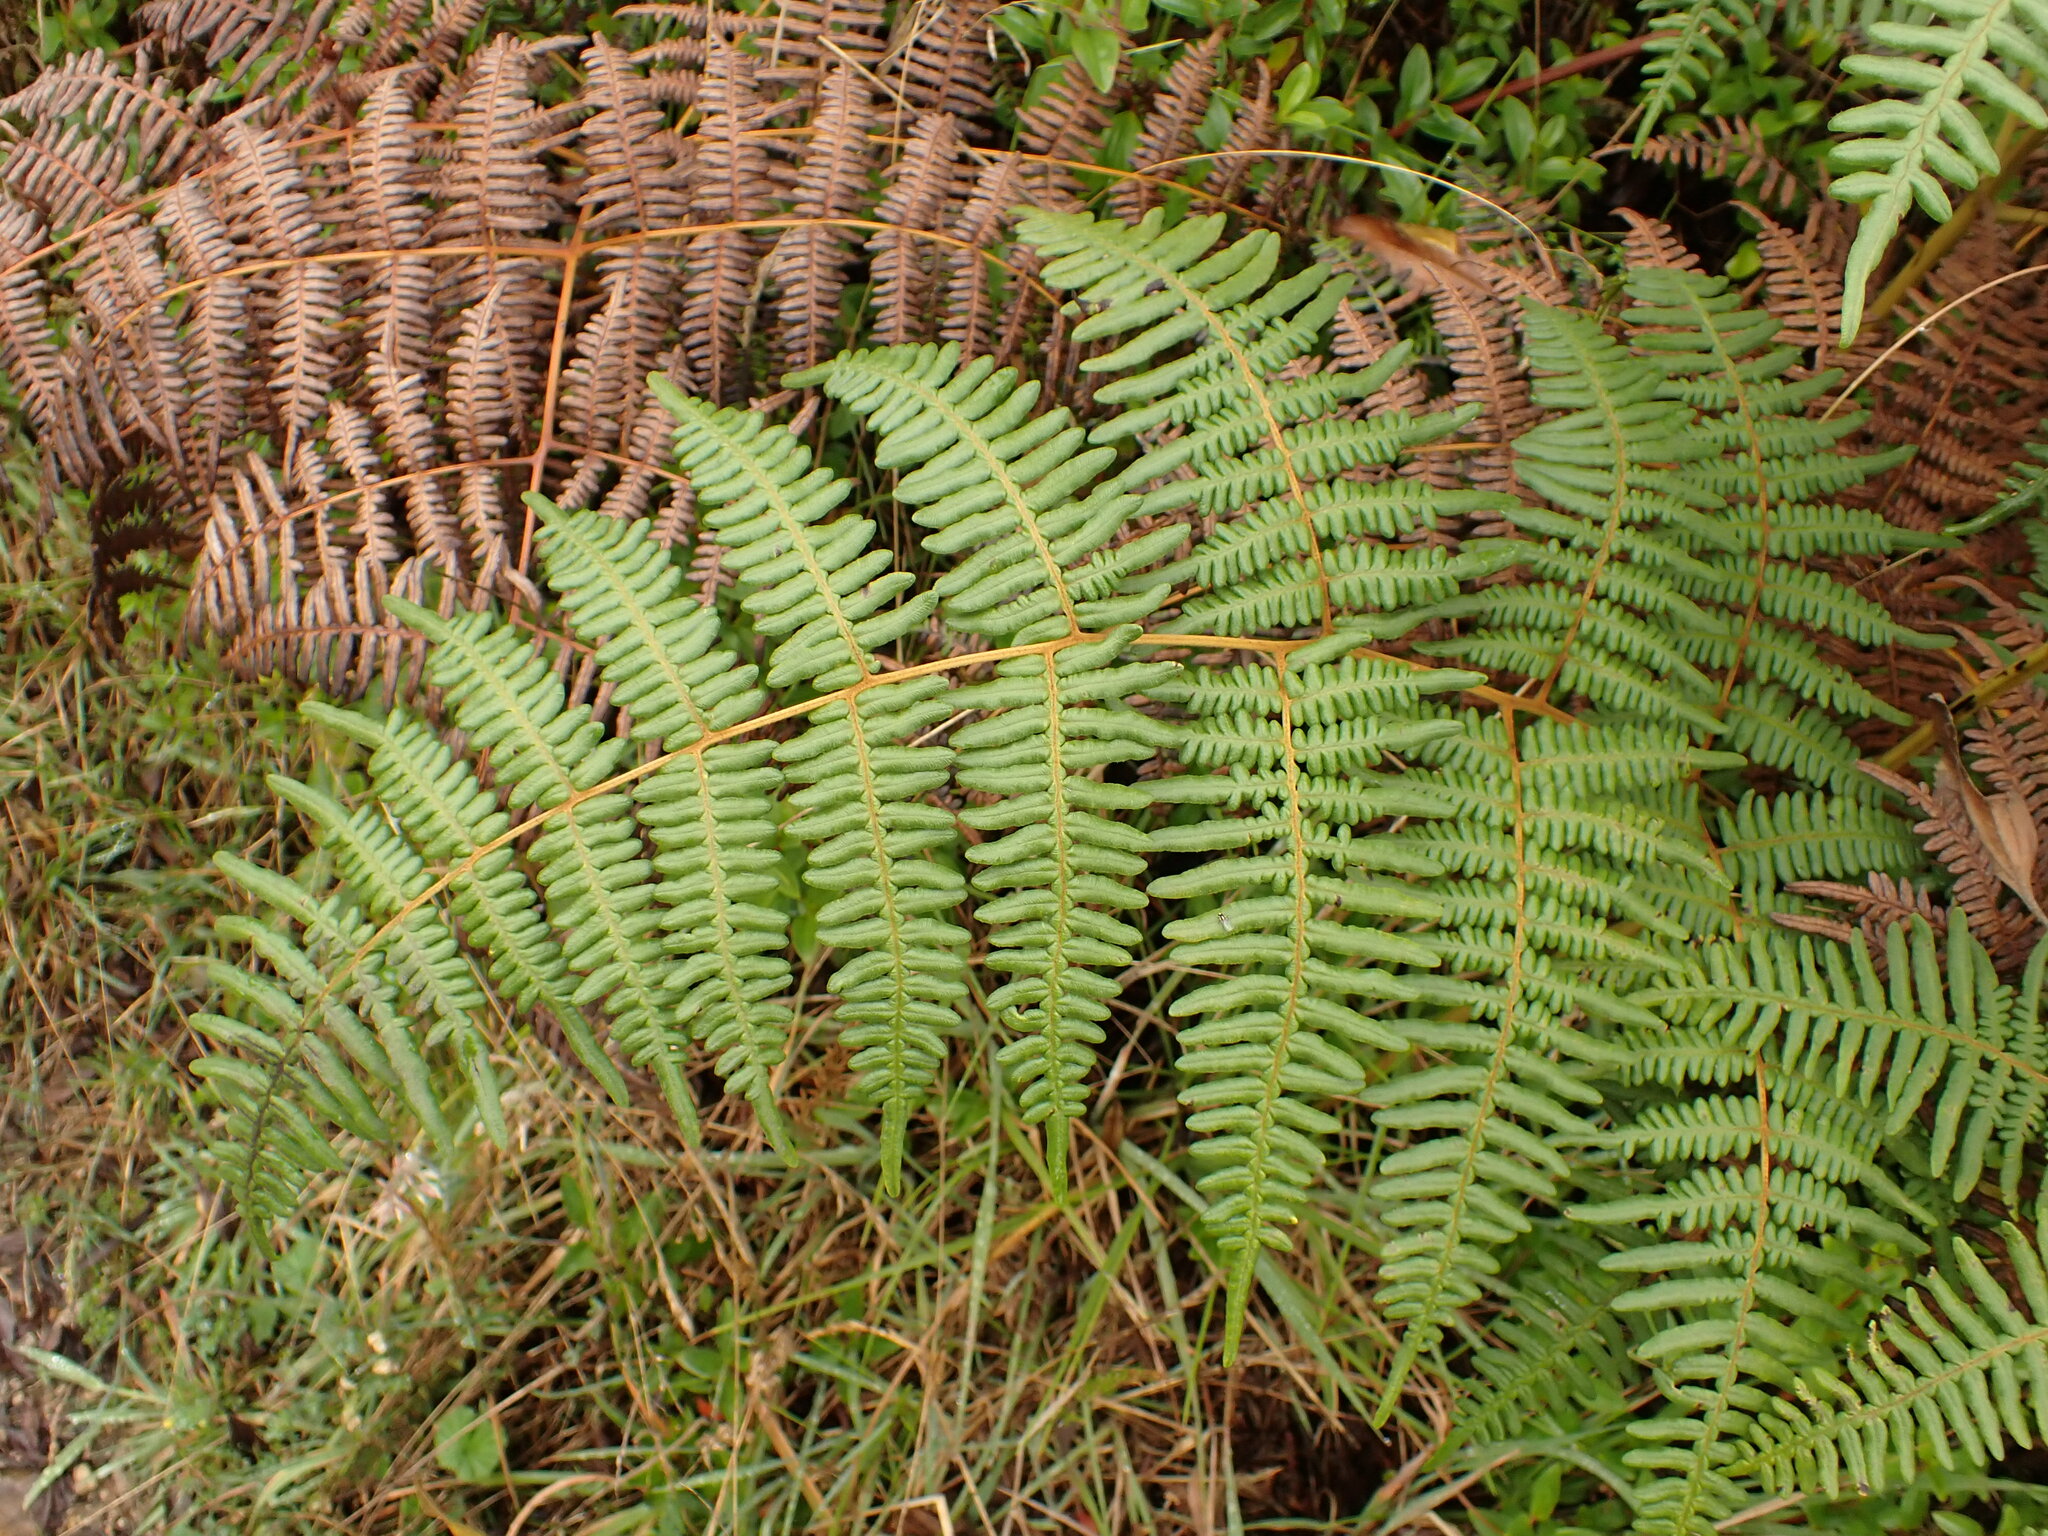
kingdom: Plantae
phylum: Tracheophyta
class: Polypodiopsida
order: Polypodiales
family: Dennstaedtiaceae
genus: Pteridium
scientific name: Pteridium esculentum
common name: Bracken fern
